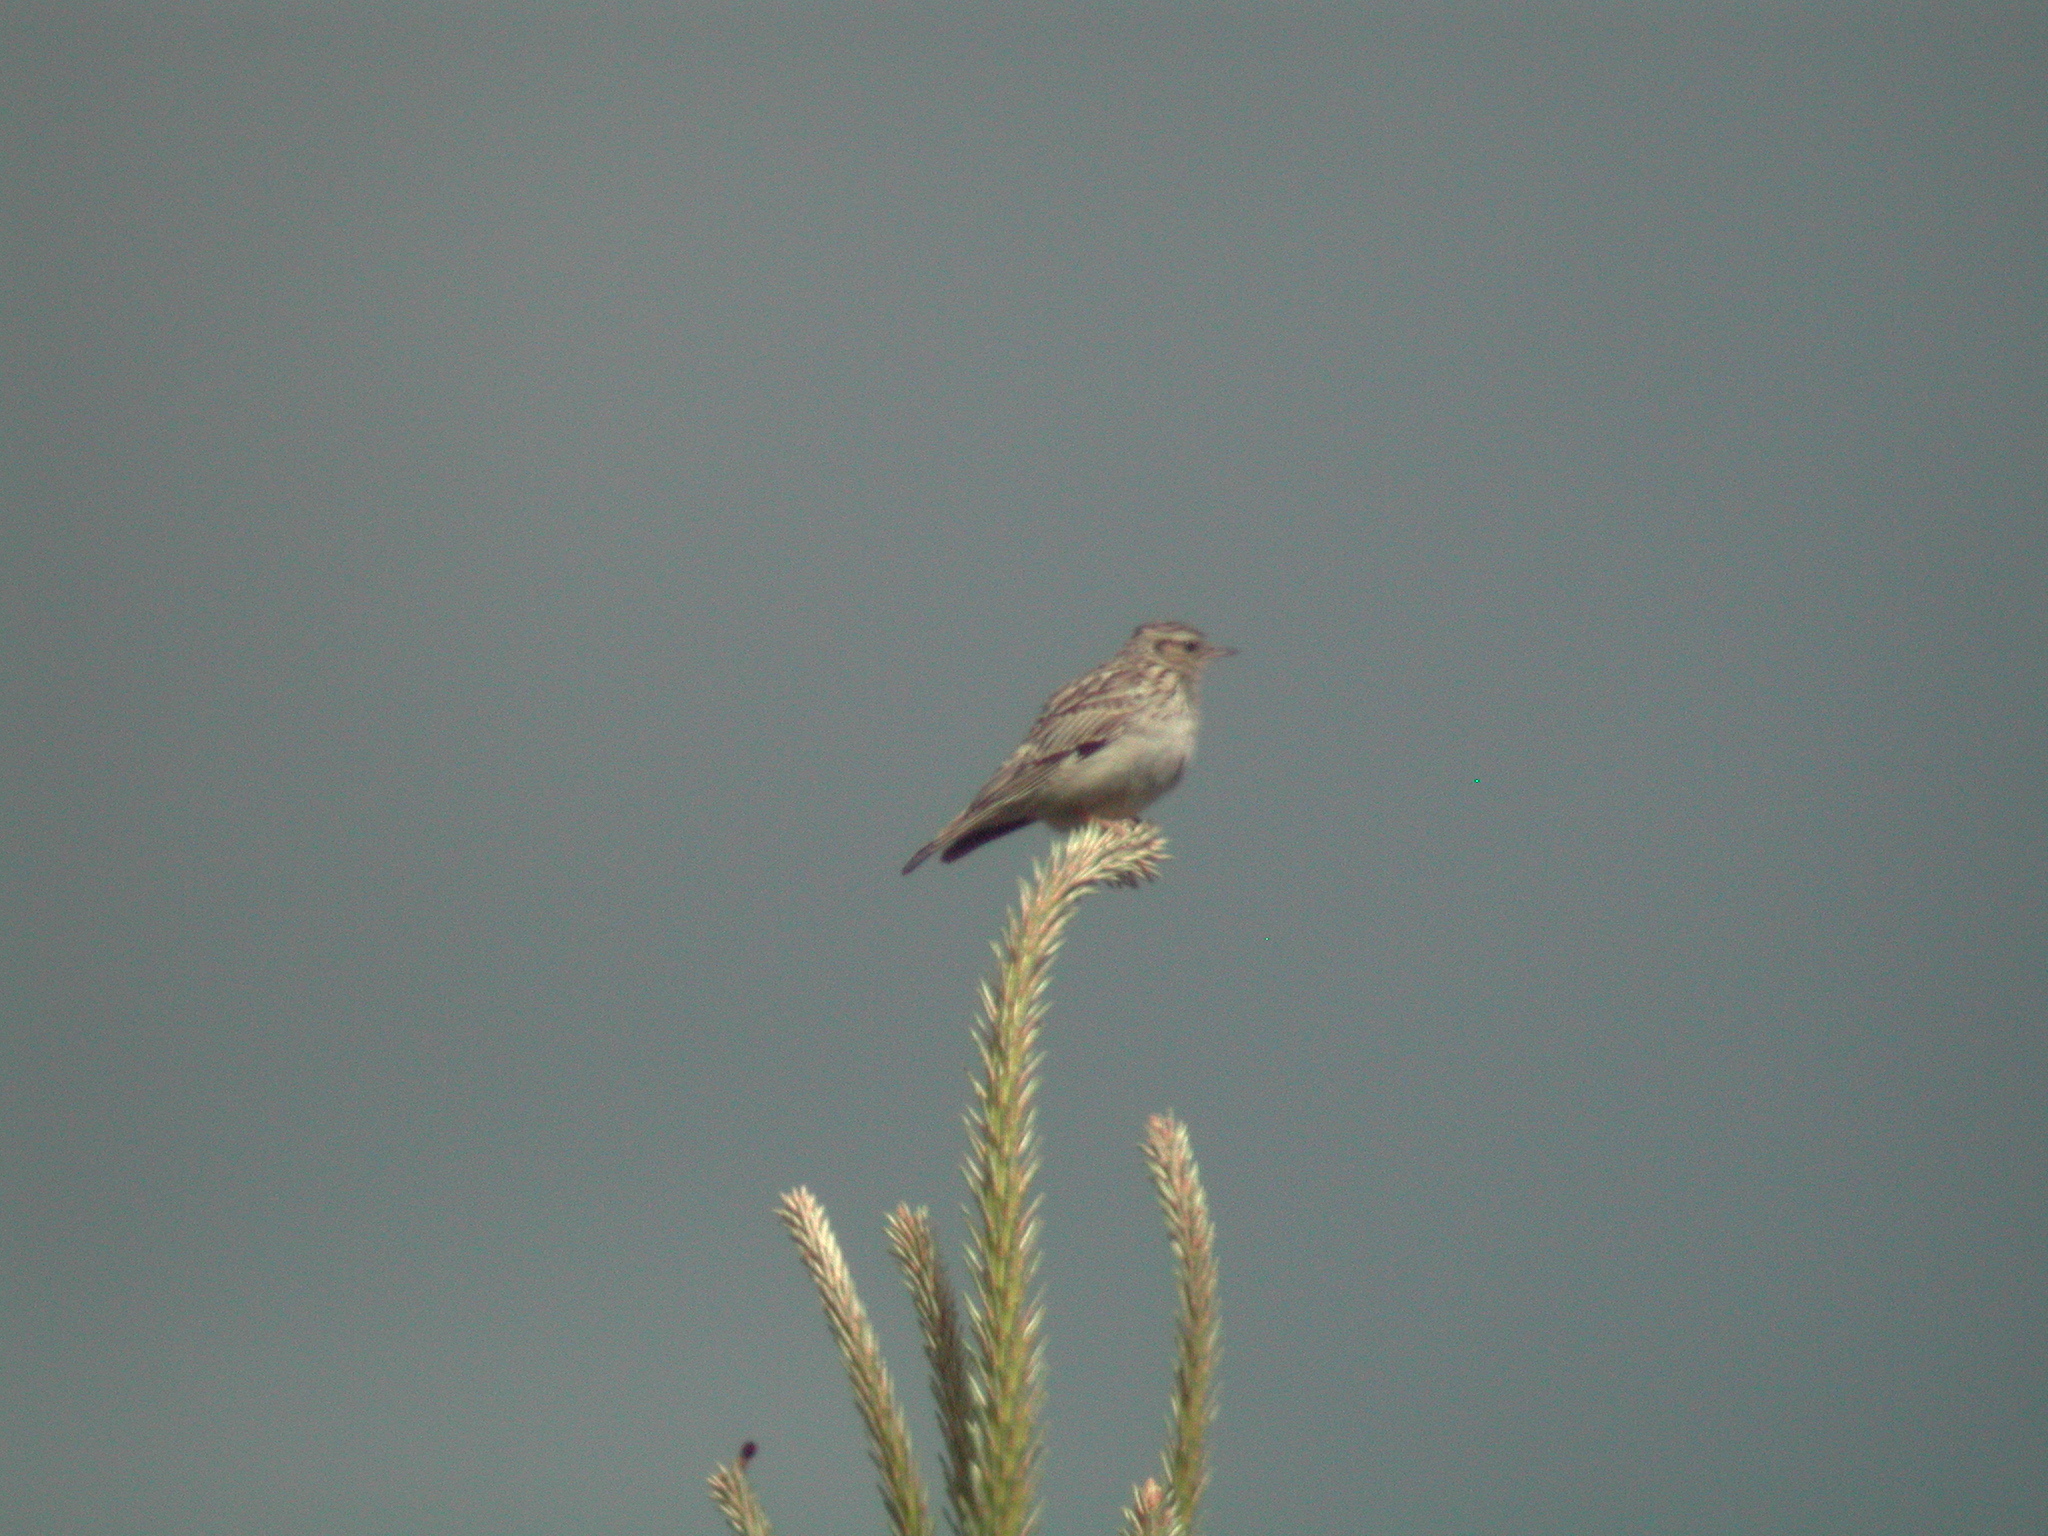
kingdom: Animalia
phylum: Chordata
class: Aves
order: Passeriformes
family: Alaudidae
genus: Lullula
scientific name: Lullula arborea
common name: Woodlark
